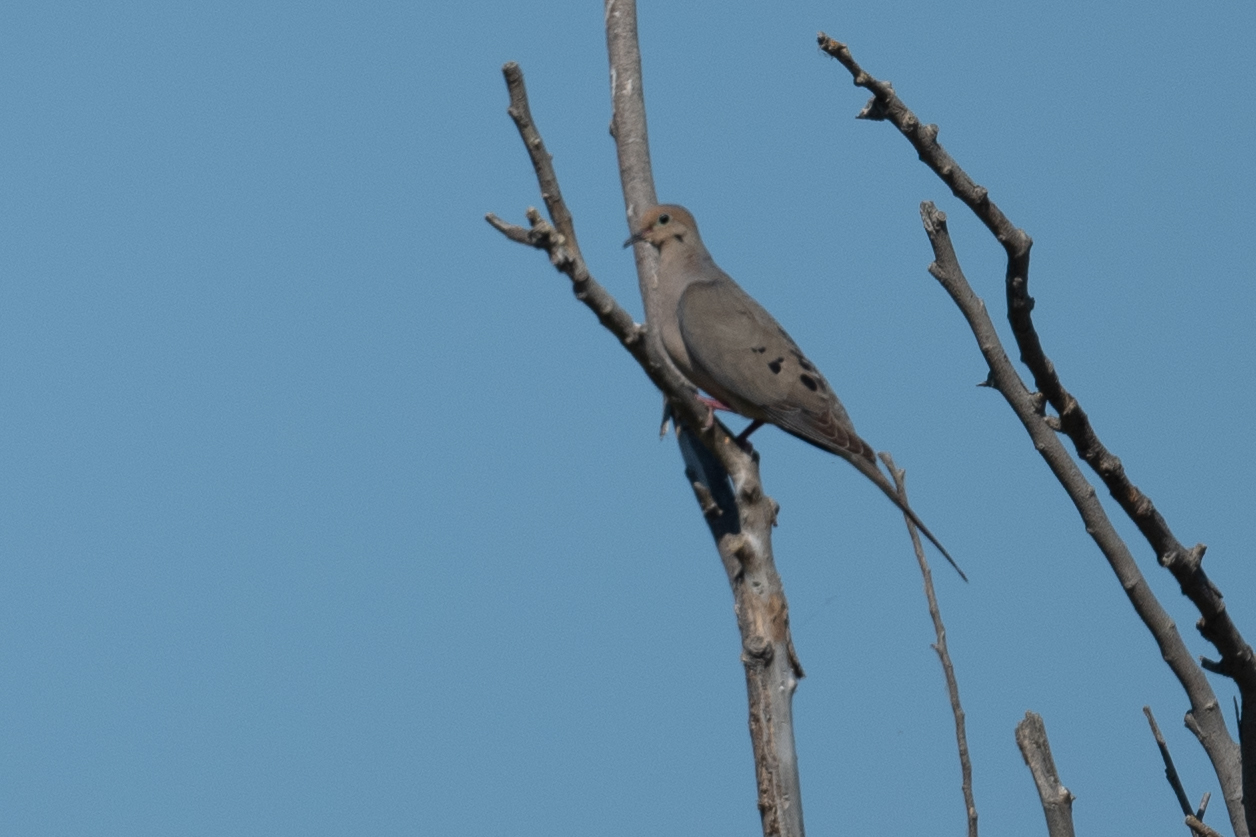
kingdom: Animalia
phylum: Chordata
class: Aves
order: Columbiformes
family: Columbidae
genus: Zenaida
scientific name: Zenaida macroura
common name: Mourning dove
